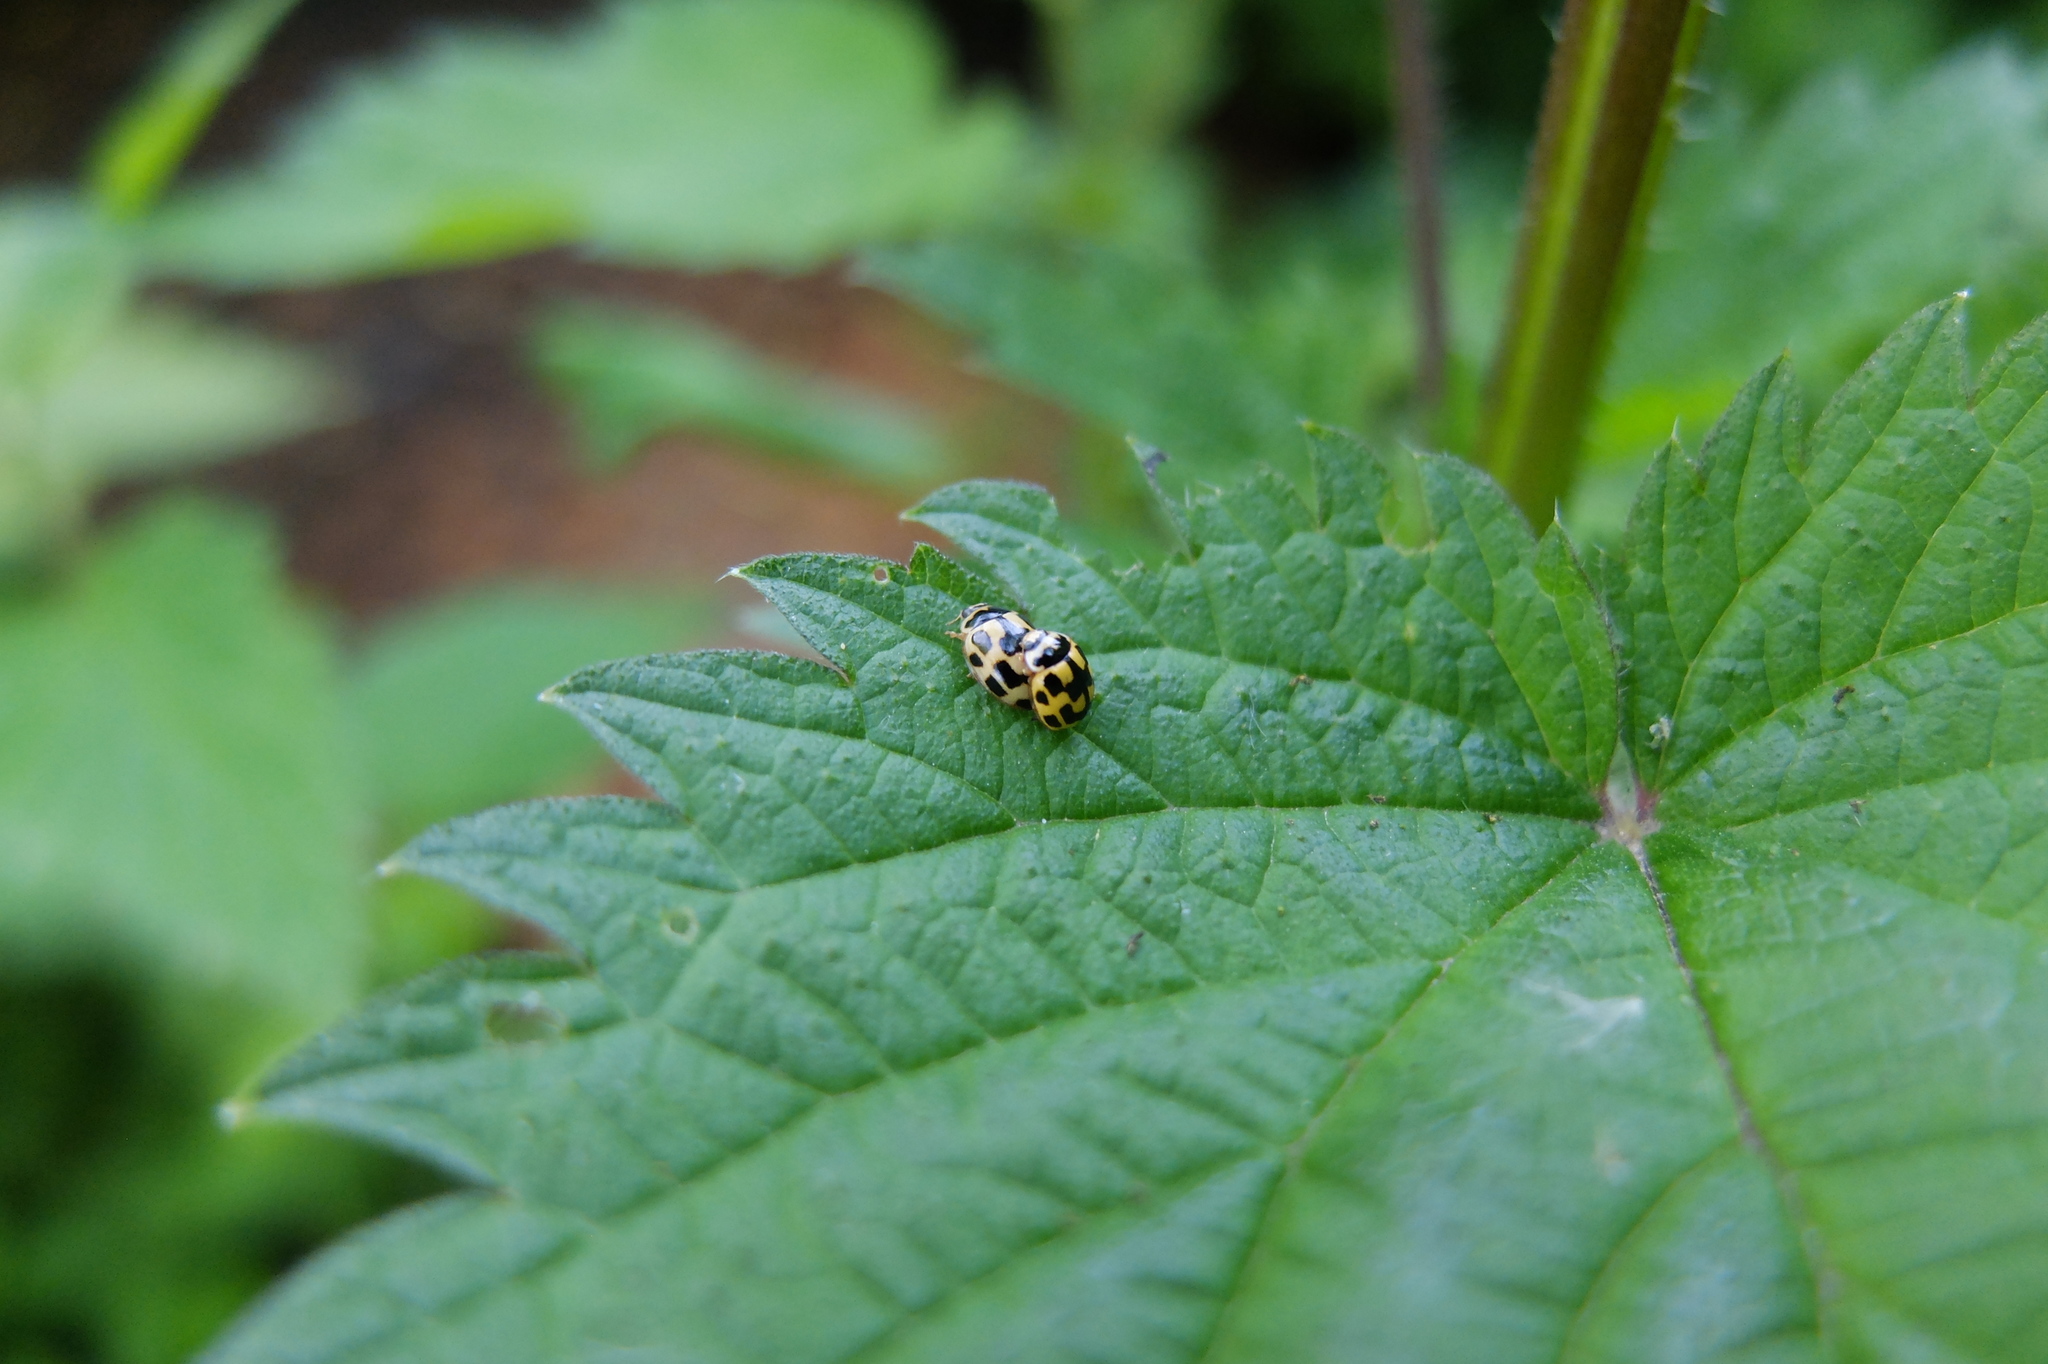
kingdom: Animalia
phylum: Arthropoda
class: Insecta
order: Coleoptera
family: Coccinellidae
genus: Propylaea
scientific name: Propylaea quatuordecimpunctata
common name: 14-spotted ladybird beetle
